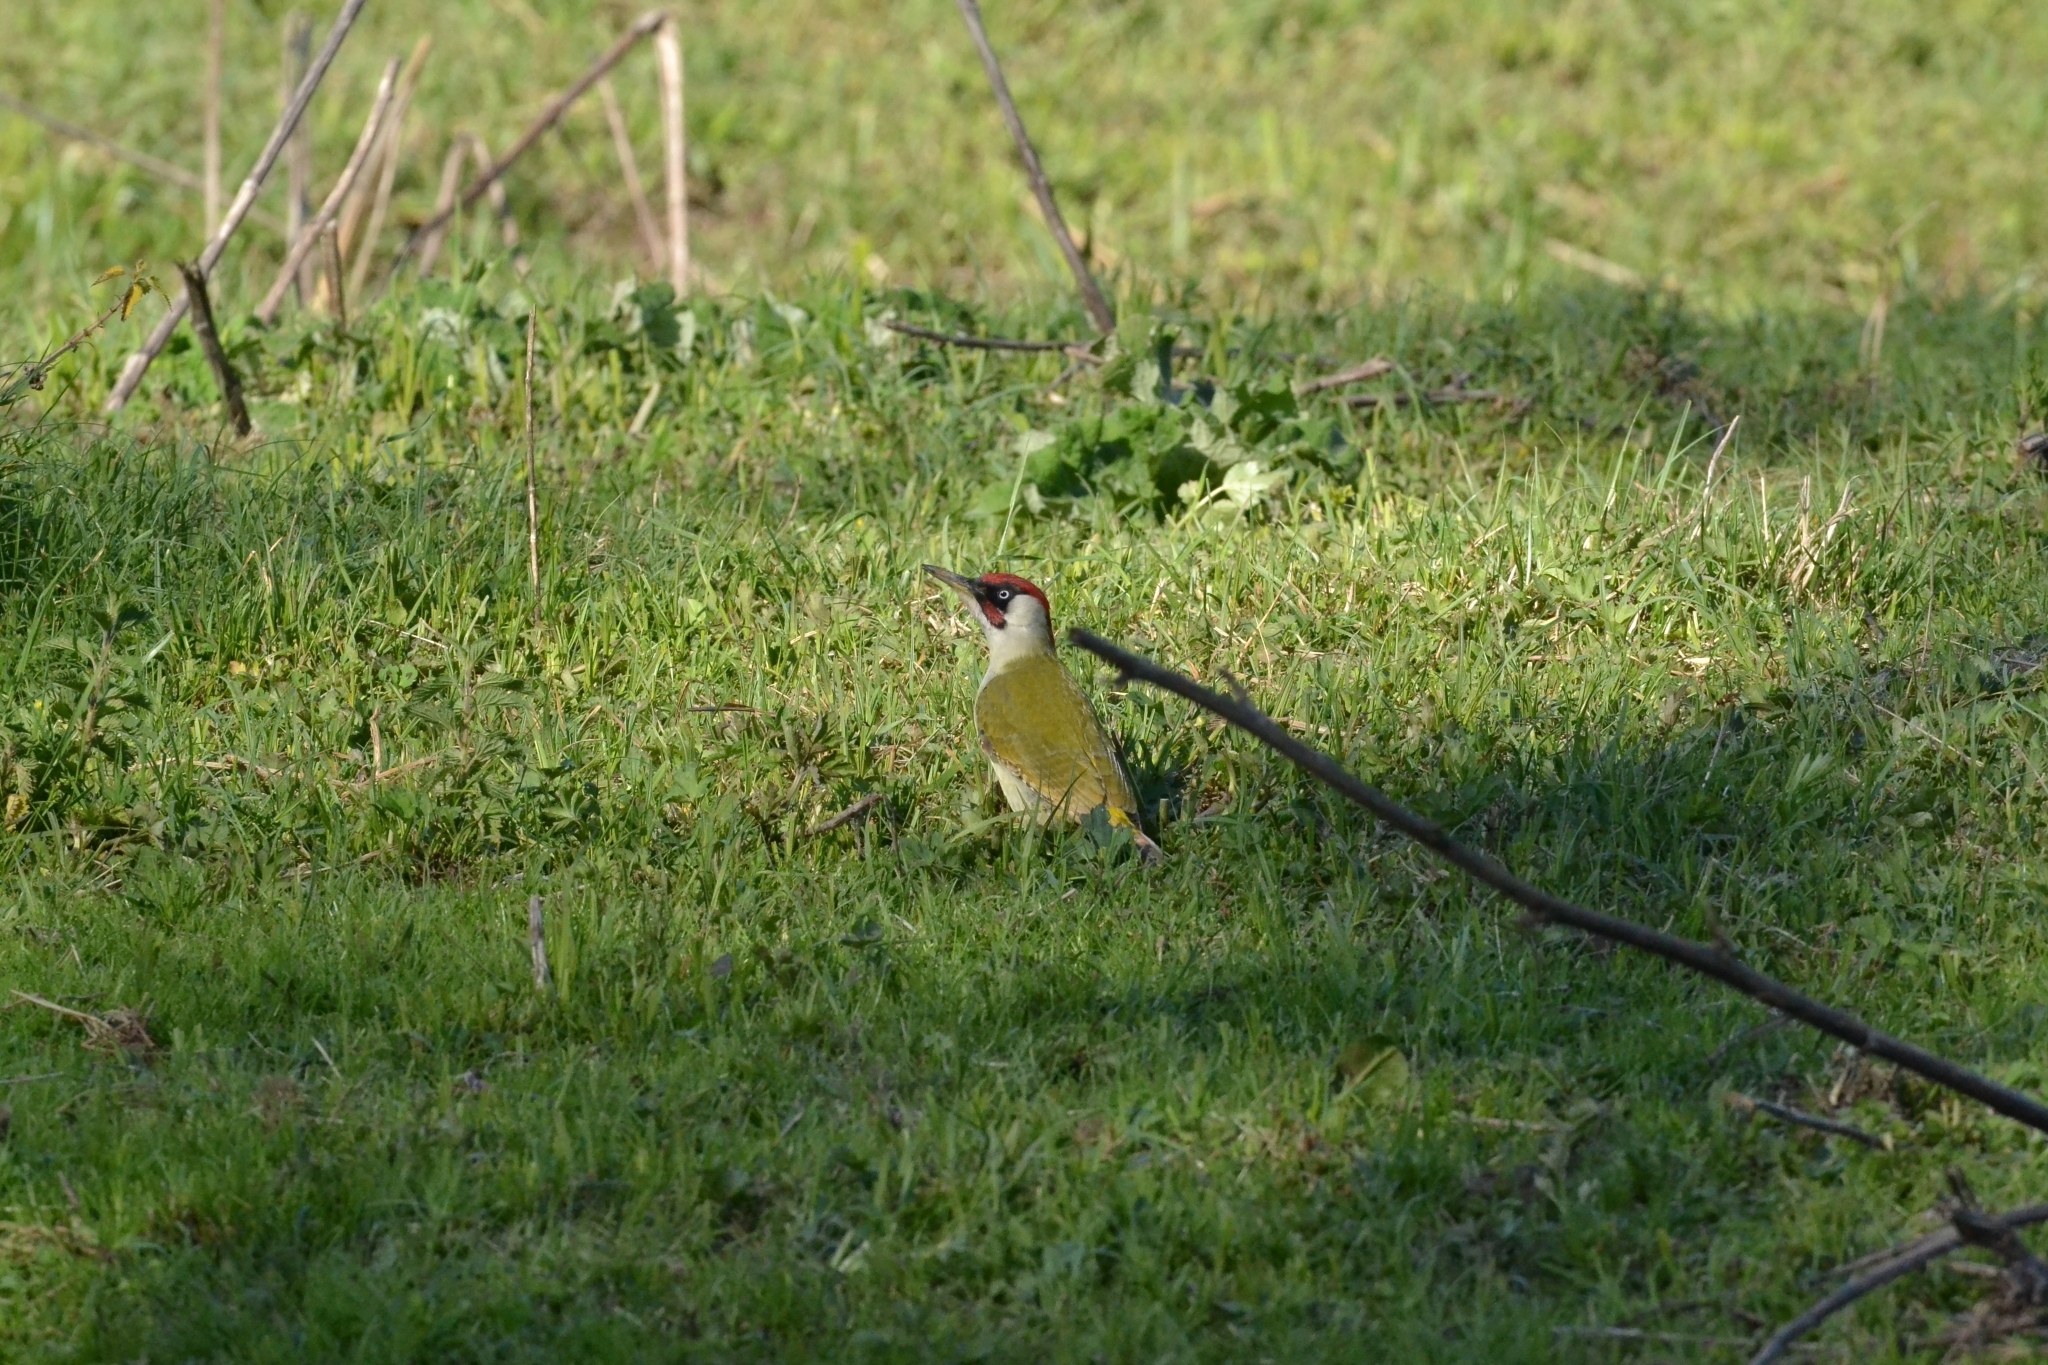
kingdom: Animalia
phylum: Chordata
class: Aves
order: Piciformes
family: Picidae
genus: Picus
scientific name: Picus viridis
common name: European green woodpecker
